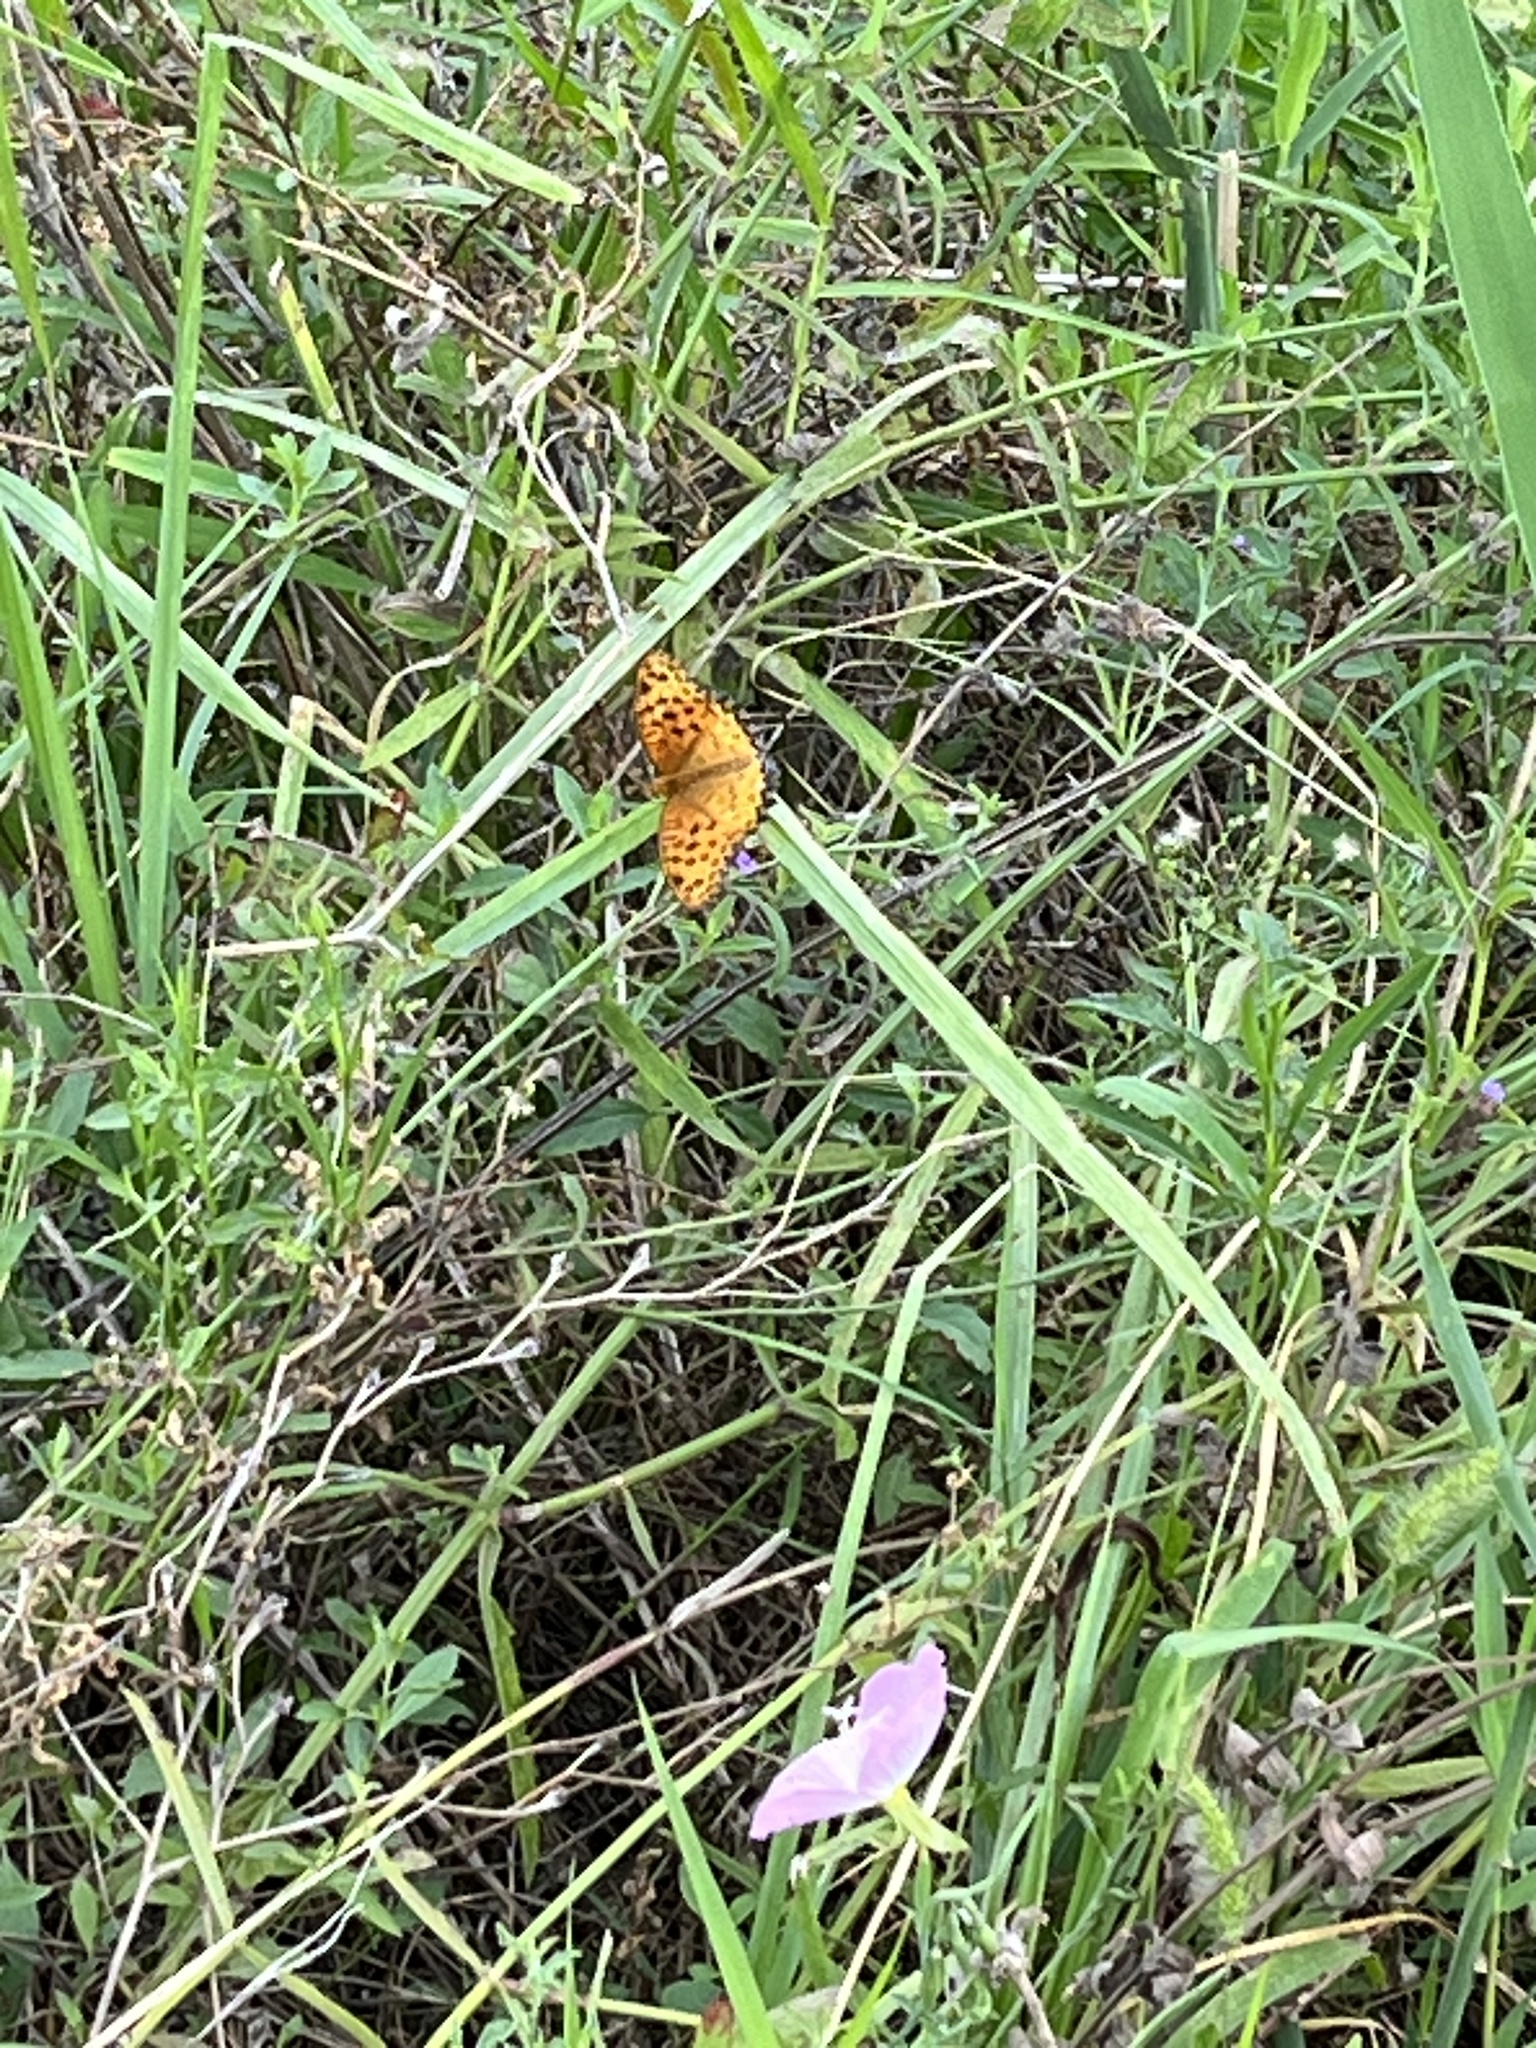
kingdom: Animalia
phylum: Arthropoda
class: Insecta
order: Lepidoptera
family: Nymphalidae
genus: Argynnis
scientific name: Argynnis hyperbius
